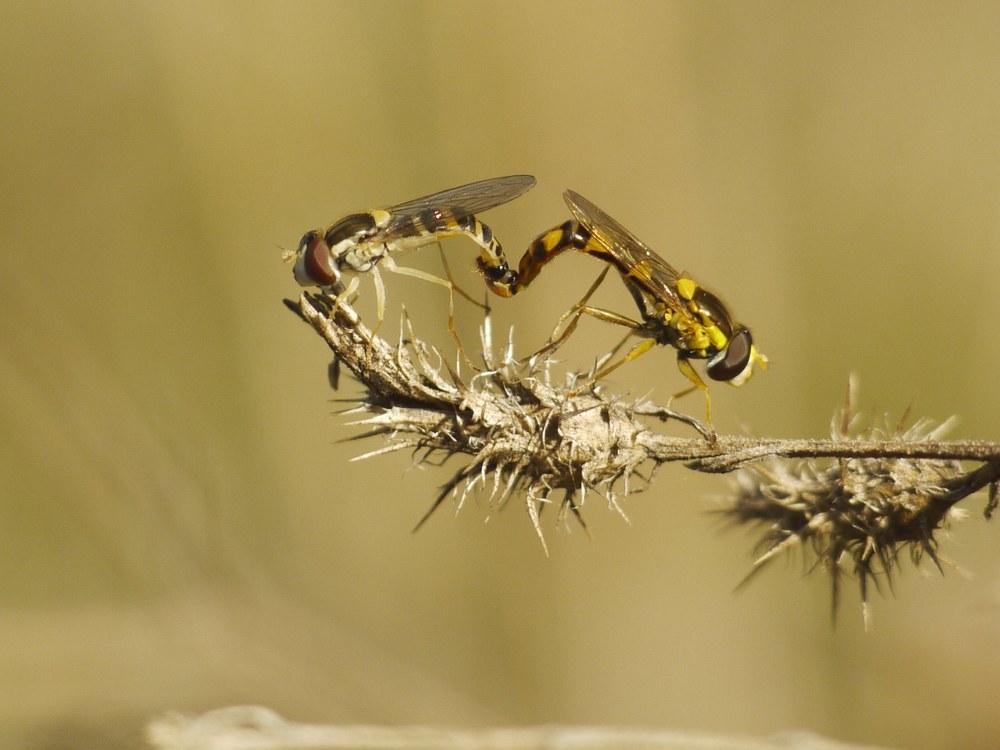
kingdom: Animalia
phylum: Arthropoda
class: Insecta
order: Diptera
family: Syrphidae
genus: Sphaerophoria
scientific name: Sphaerophoria scripta
